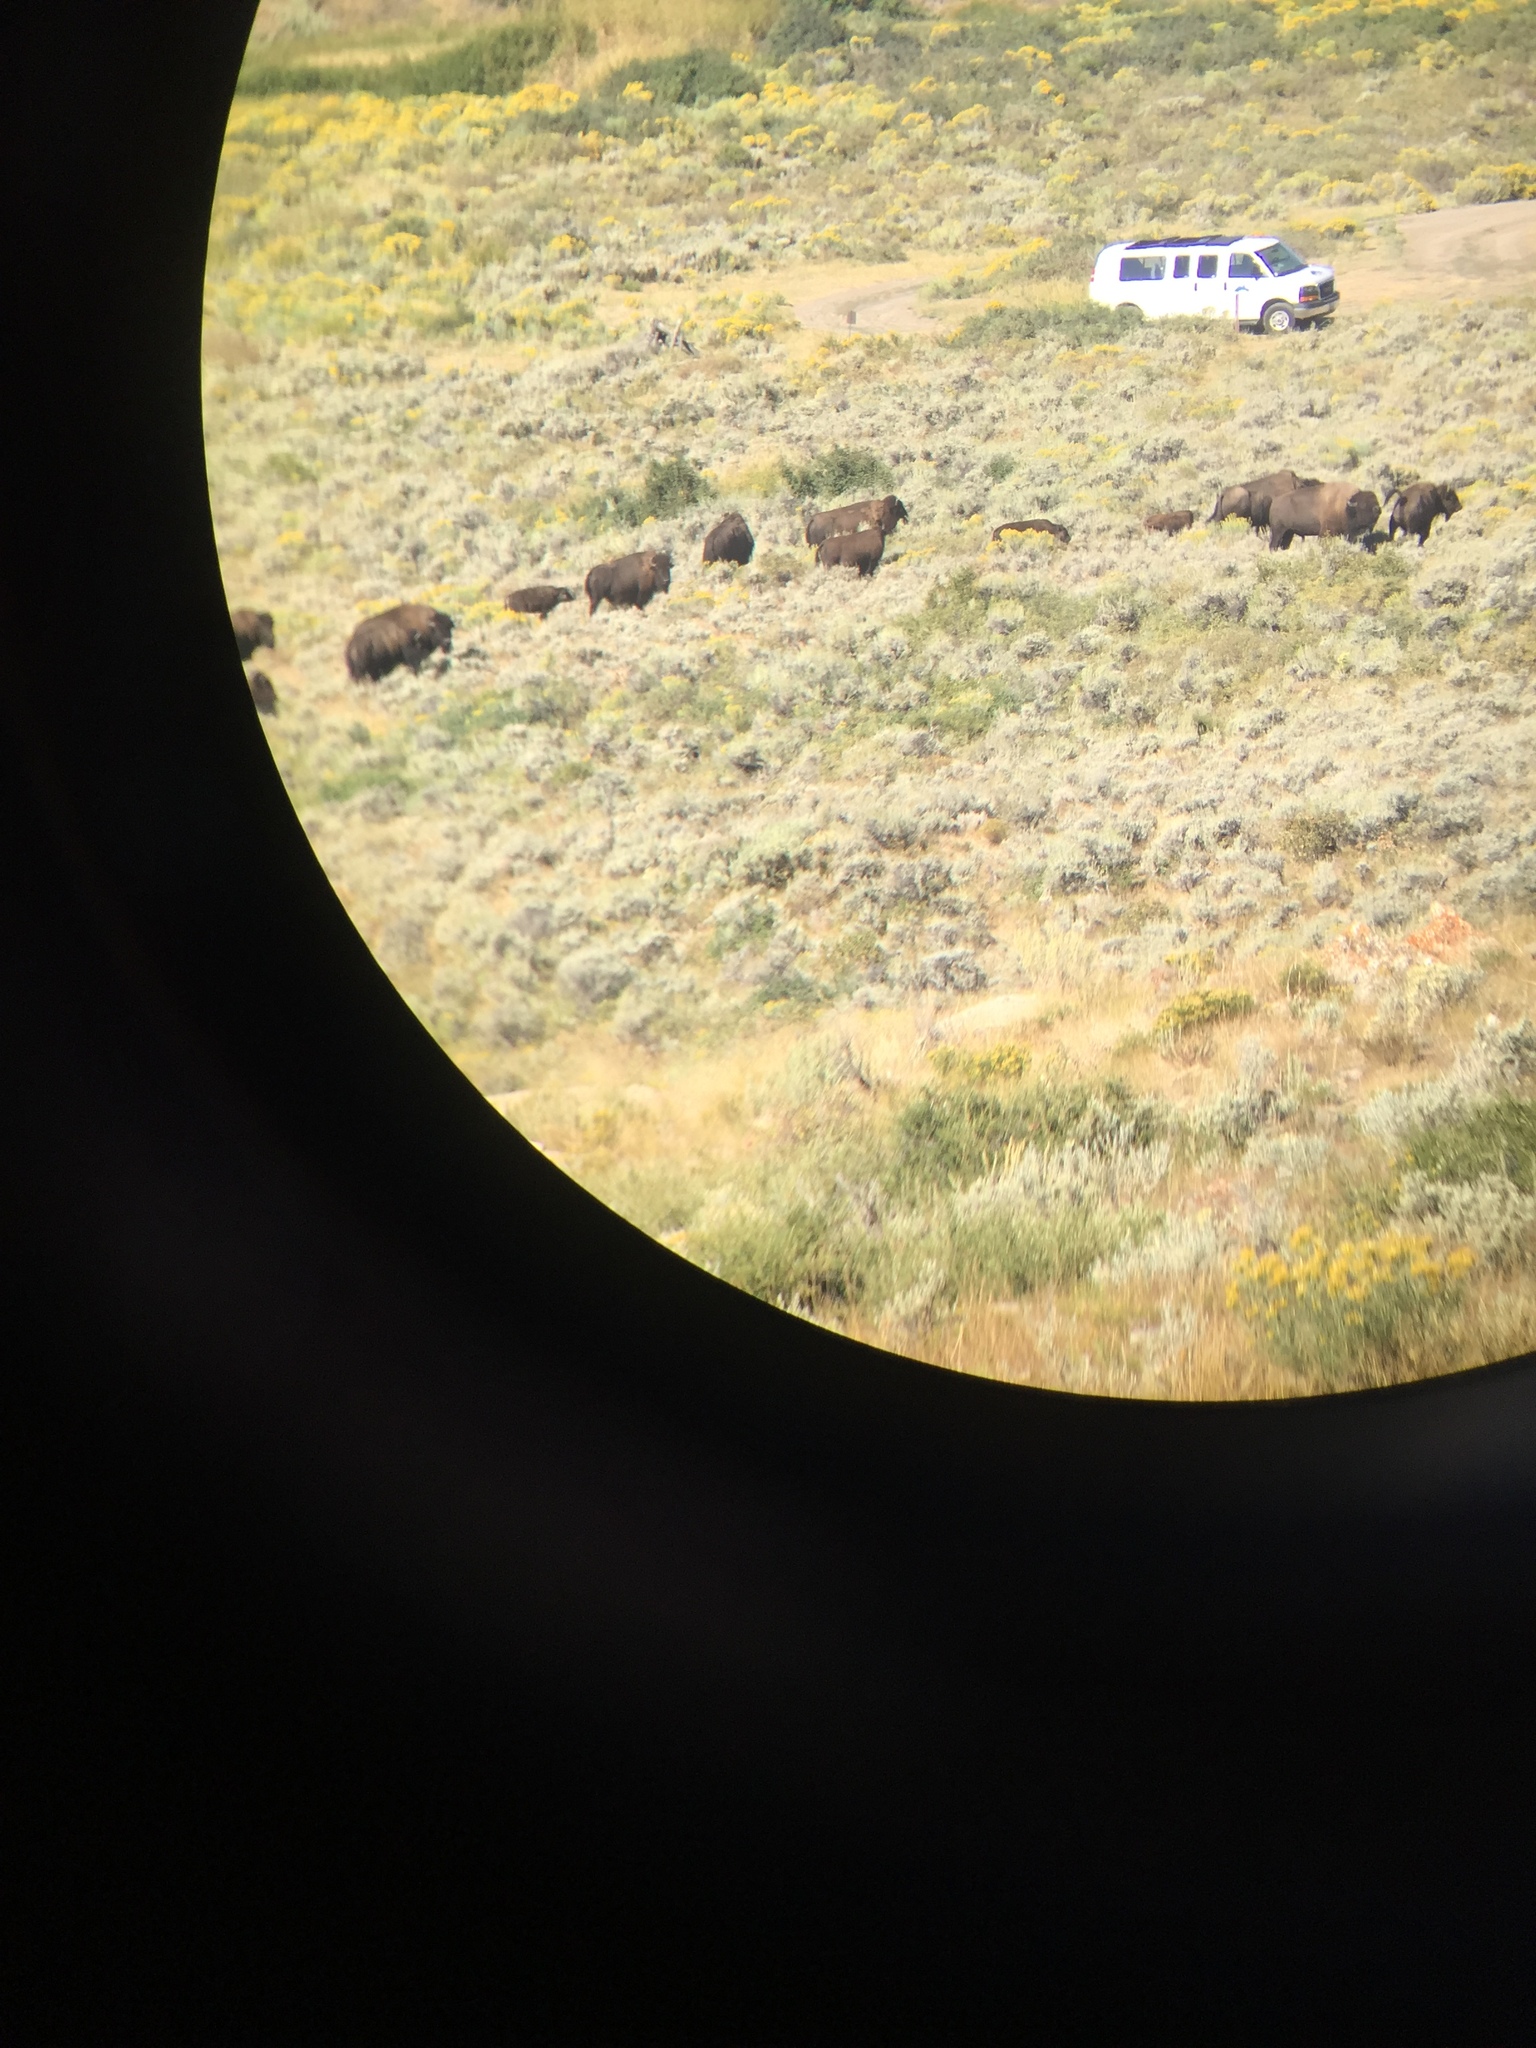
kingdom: Animalia
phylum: Chordata
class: Mammalia
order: Artiodactyla
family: Bovidae
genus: Bison
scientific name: Bison bison
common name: American bison
